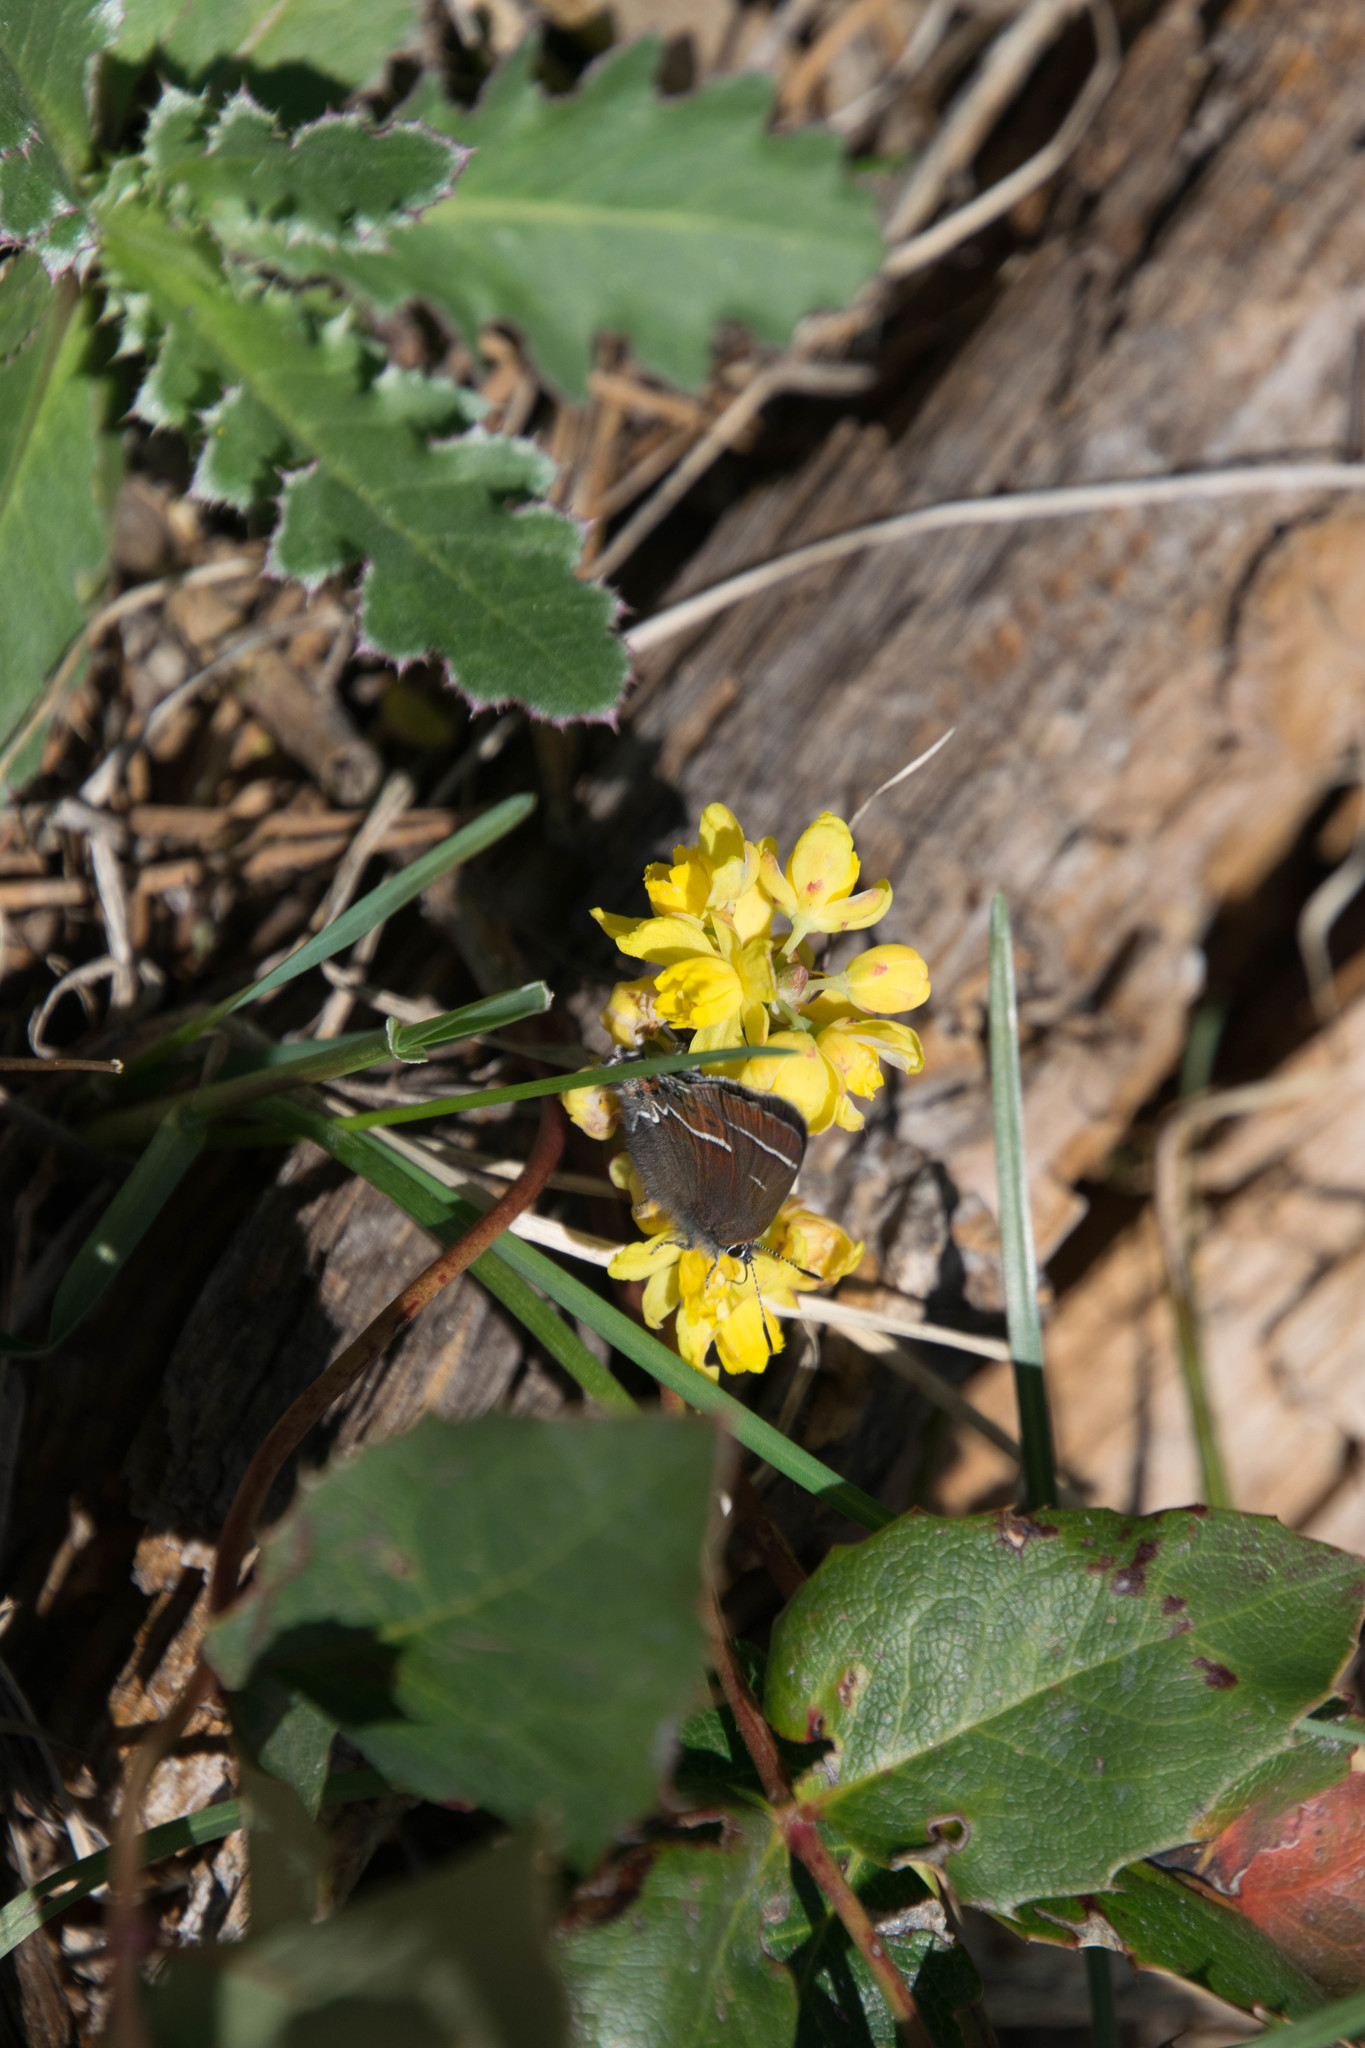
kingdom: Plantae
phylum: Tracheophyta
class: Magnoliopsida
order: Ranunculales
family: Berberidaceae
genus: Mahonia
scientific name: Mahonia repens
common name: Creeping oregon-grape
